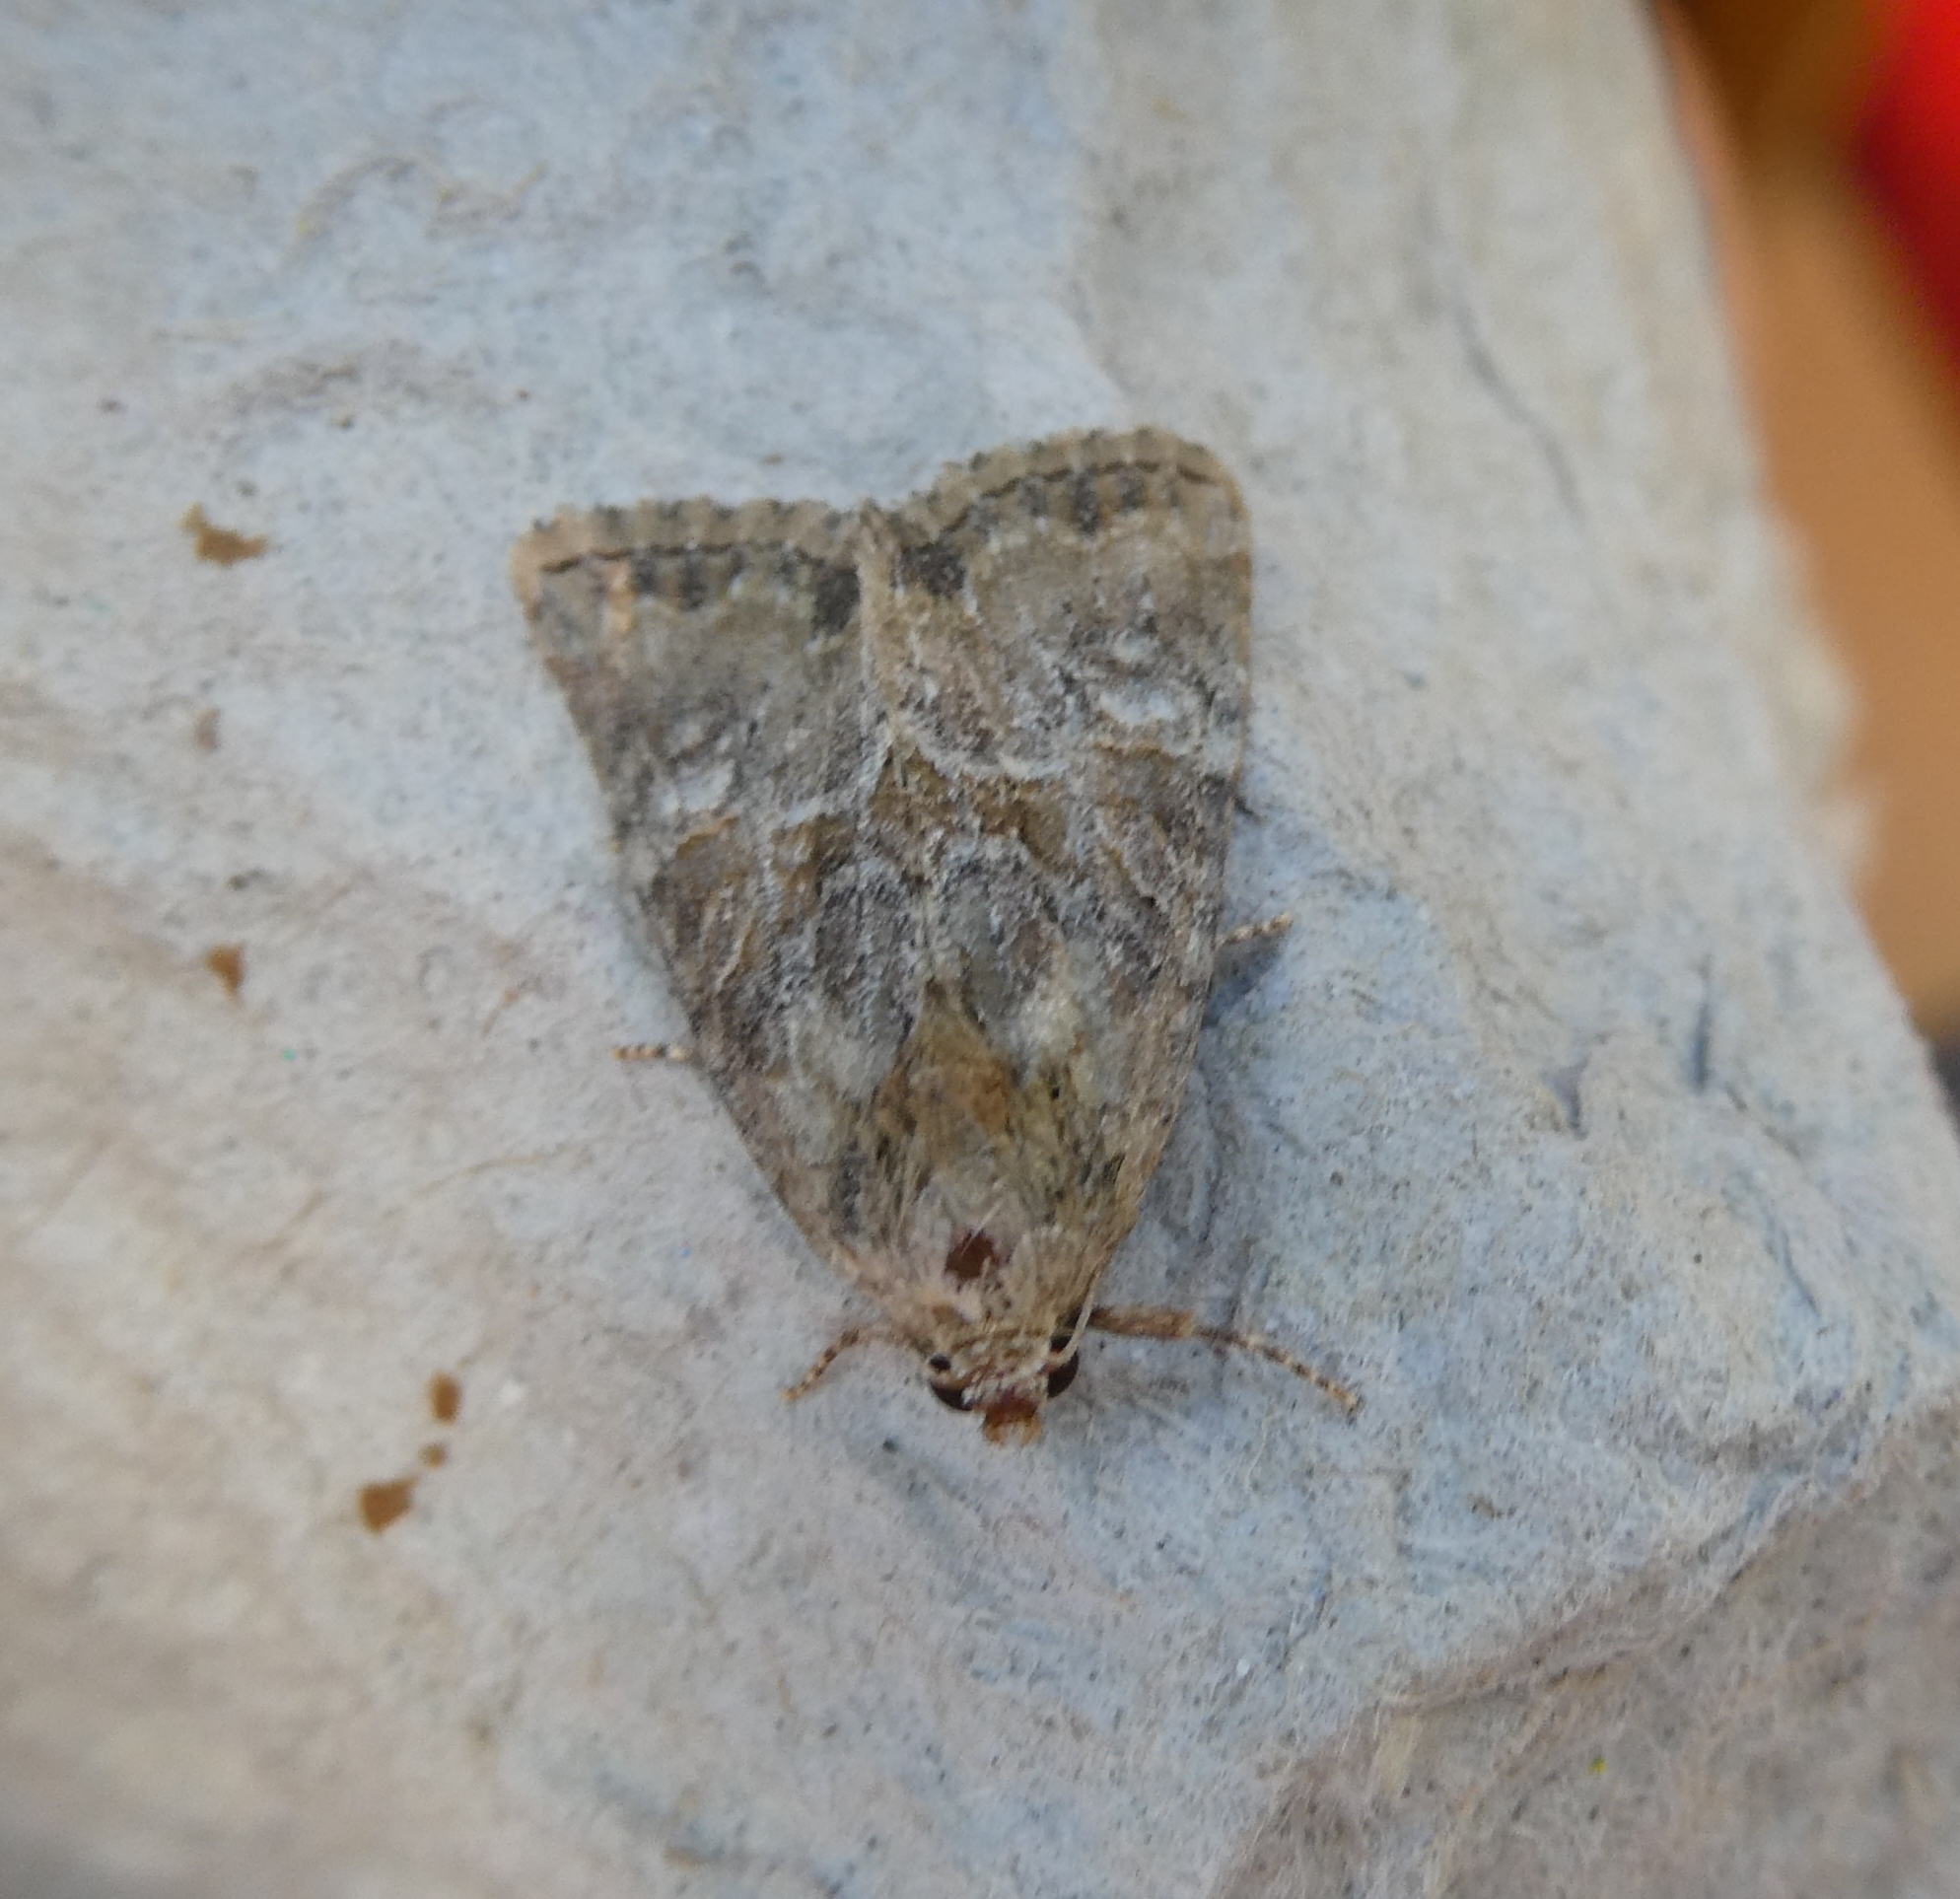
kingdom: Animalia
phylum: Arthropoda
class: Insecta
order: Lepidoptera
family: Noctuidae
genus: Mesoligia
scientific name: Mesoligia furuncula
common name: Cloaked minor
